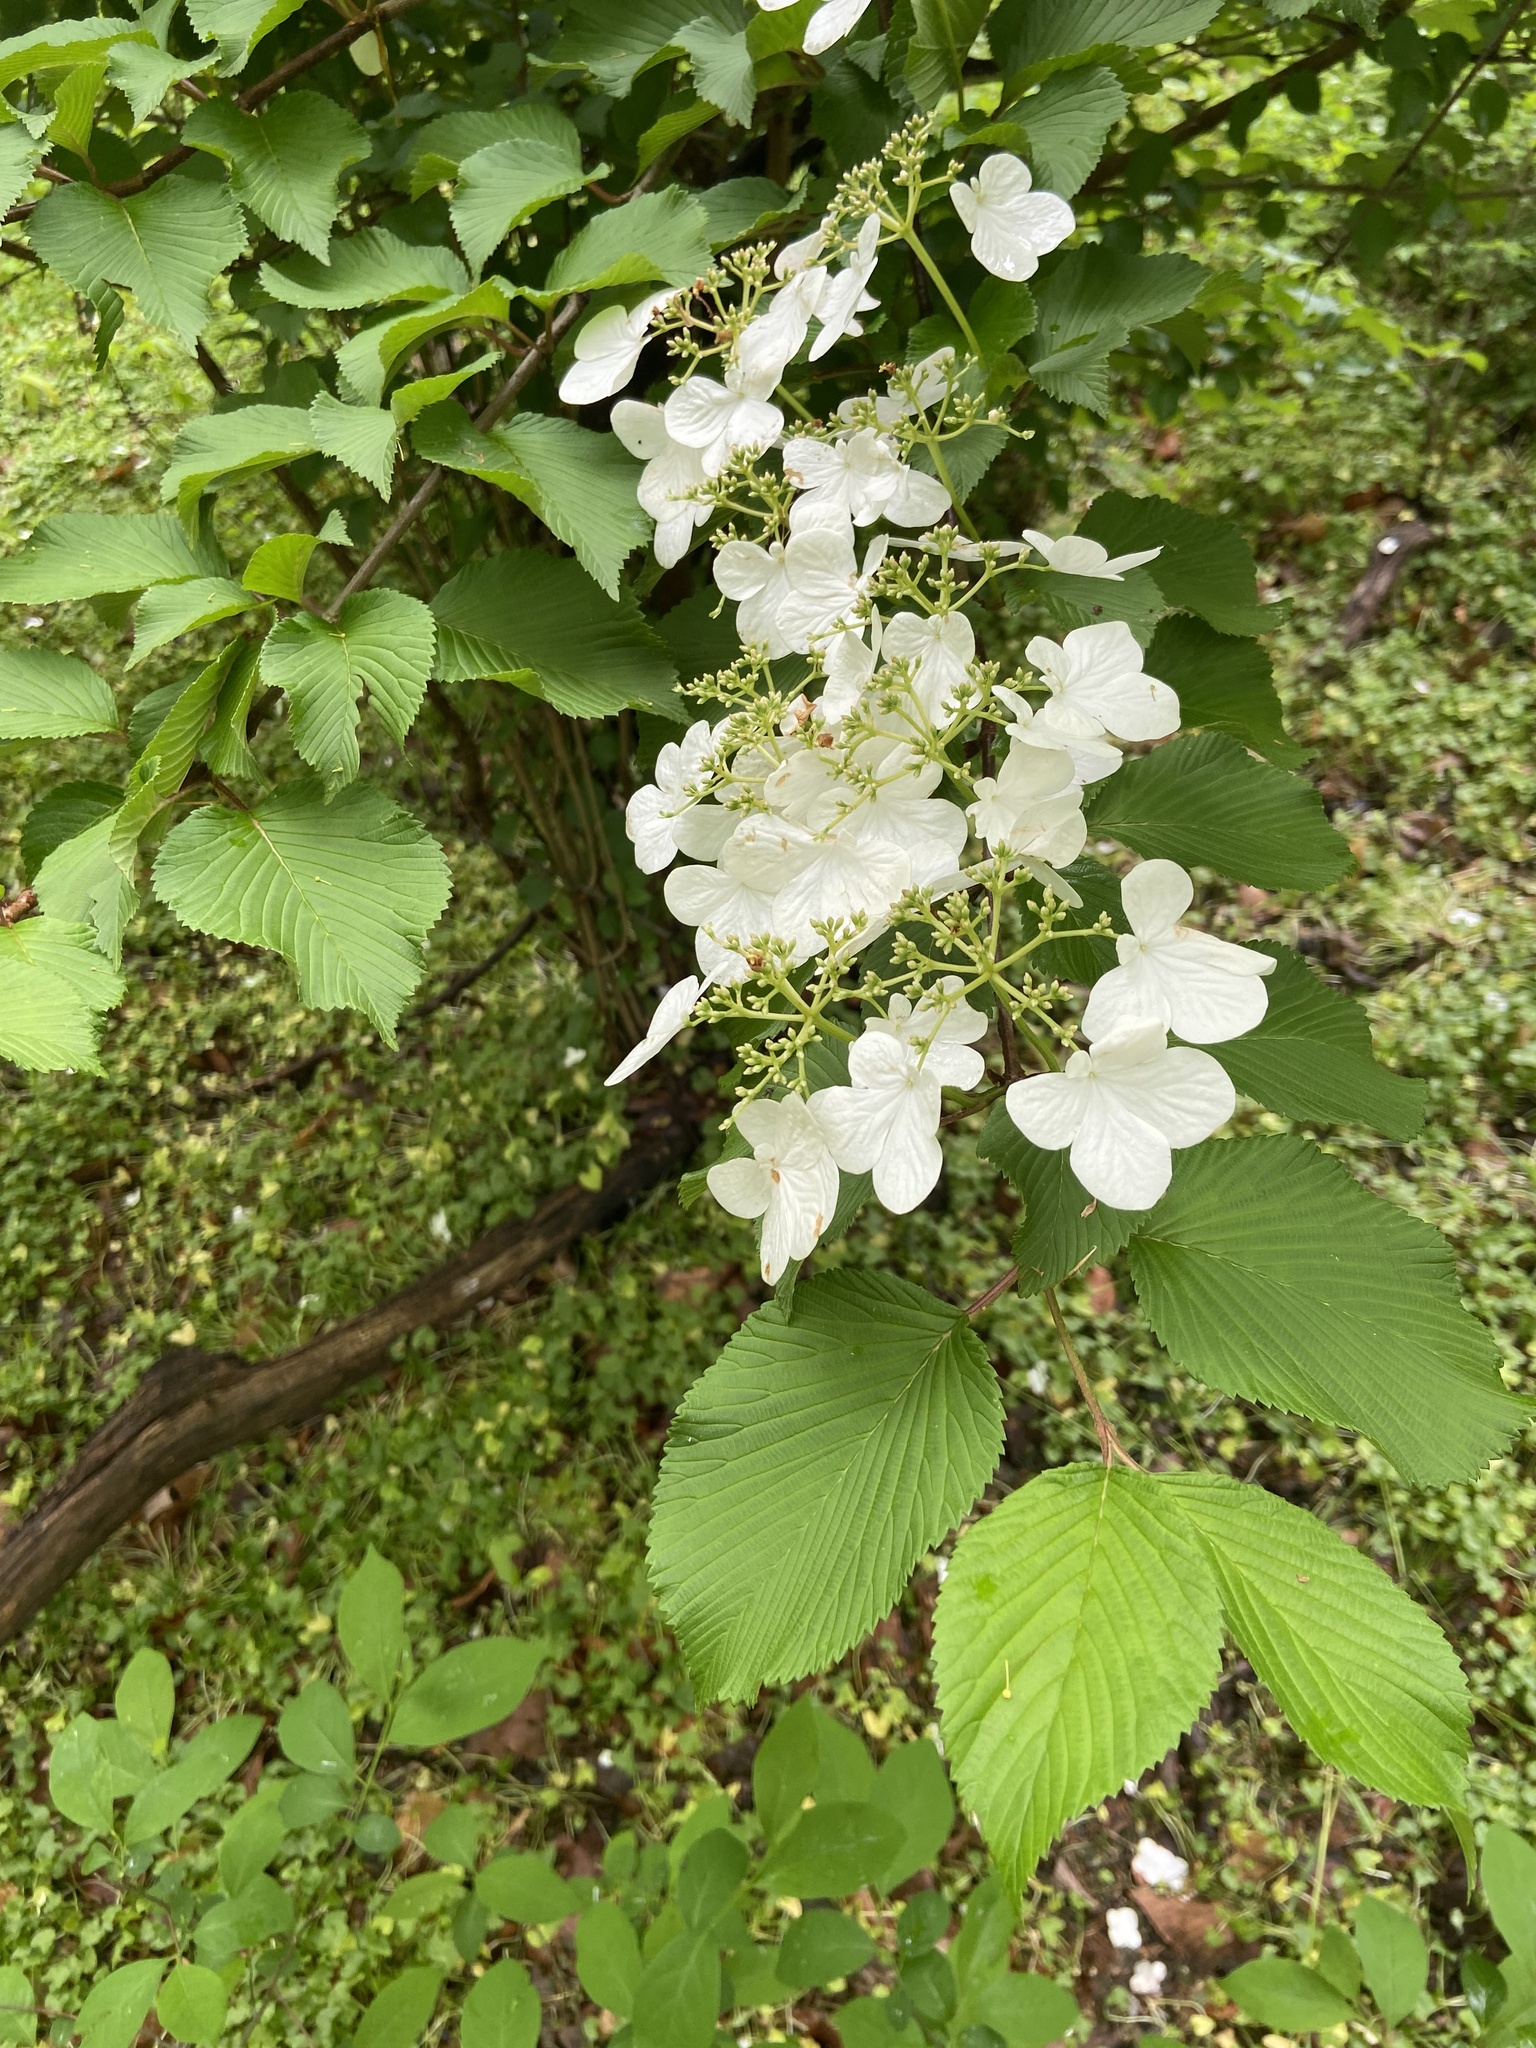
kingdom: Plantae
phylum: Tracheophyta
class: Magnoliopsida
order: Dipsacales
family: Viburnaceae
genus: Viburnum
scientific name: Viburnum plicatum
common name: Japanese snowball
